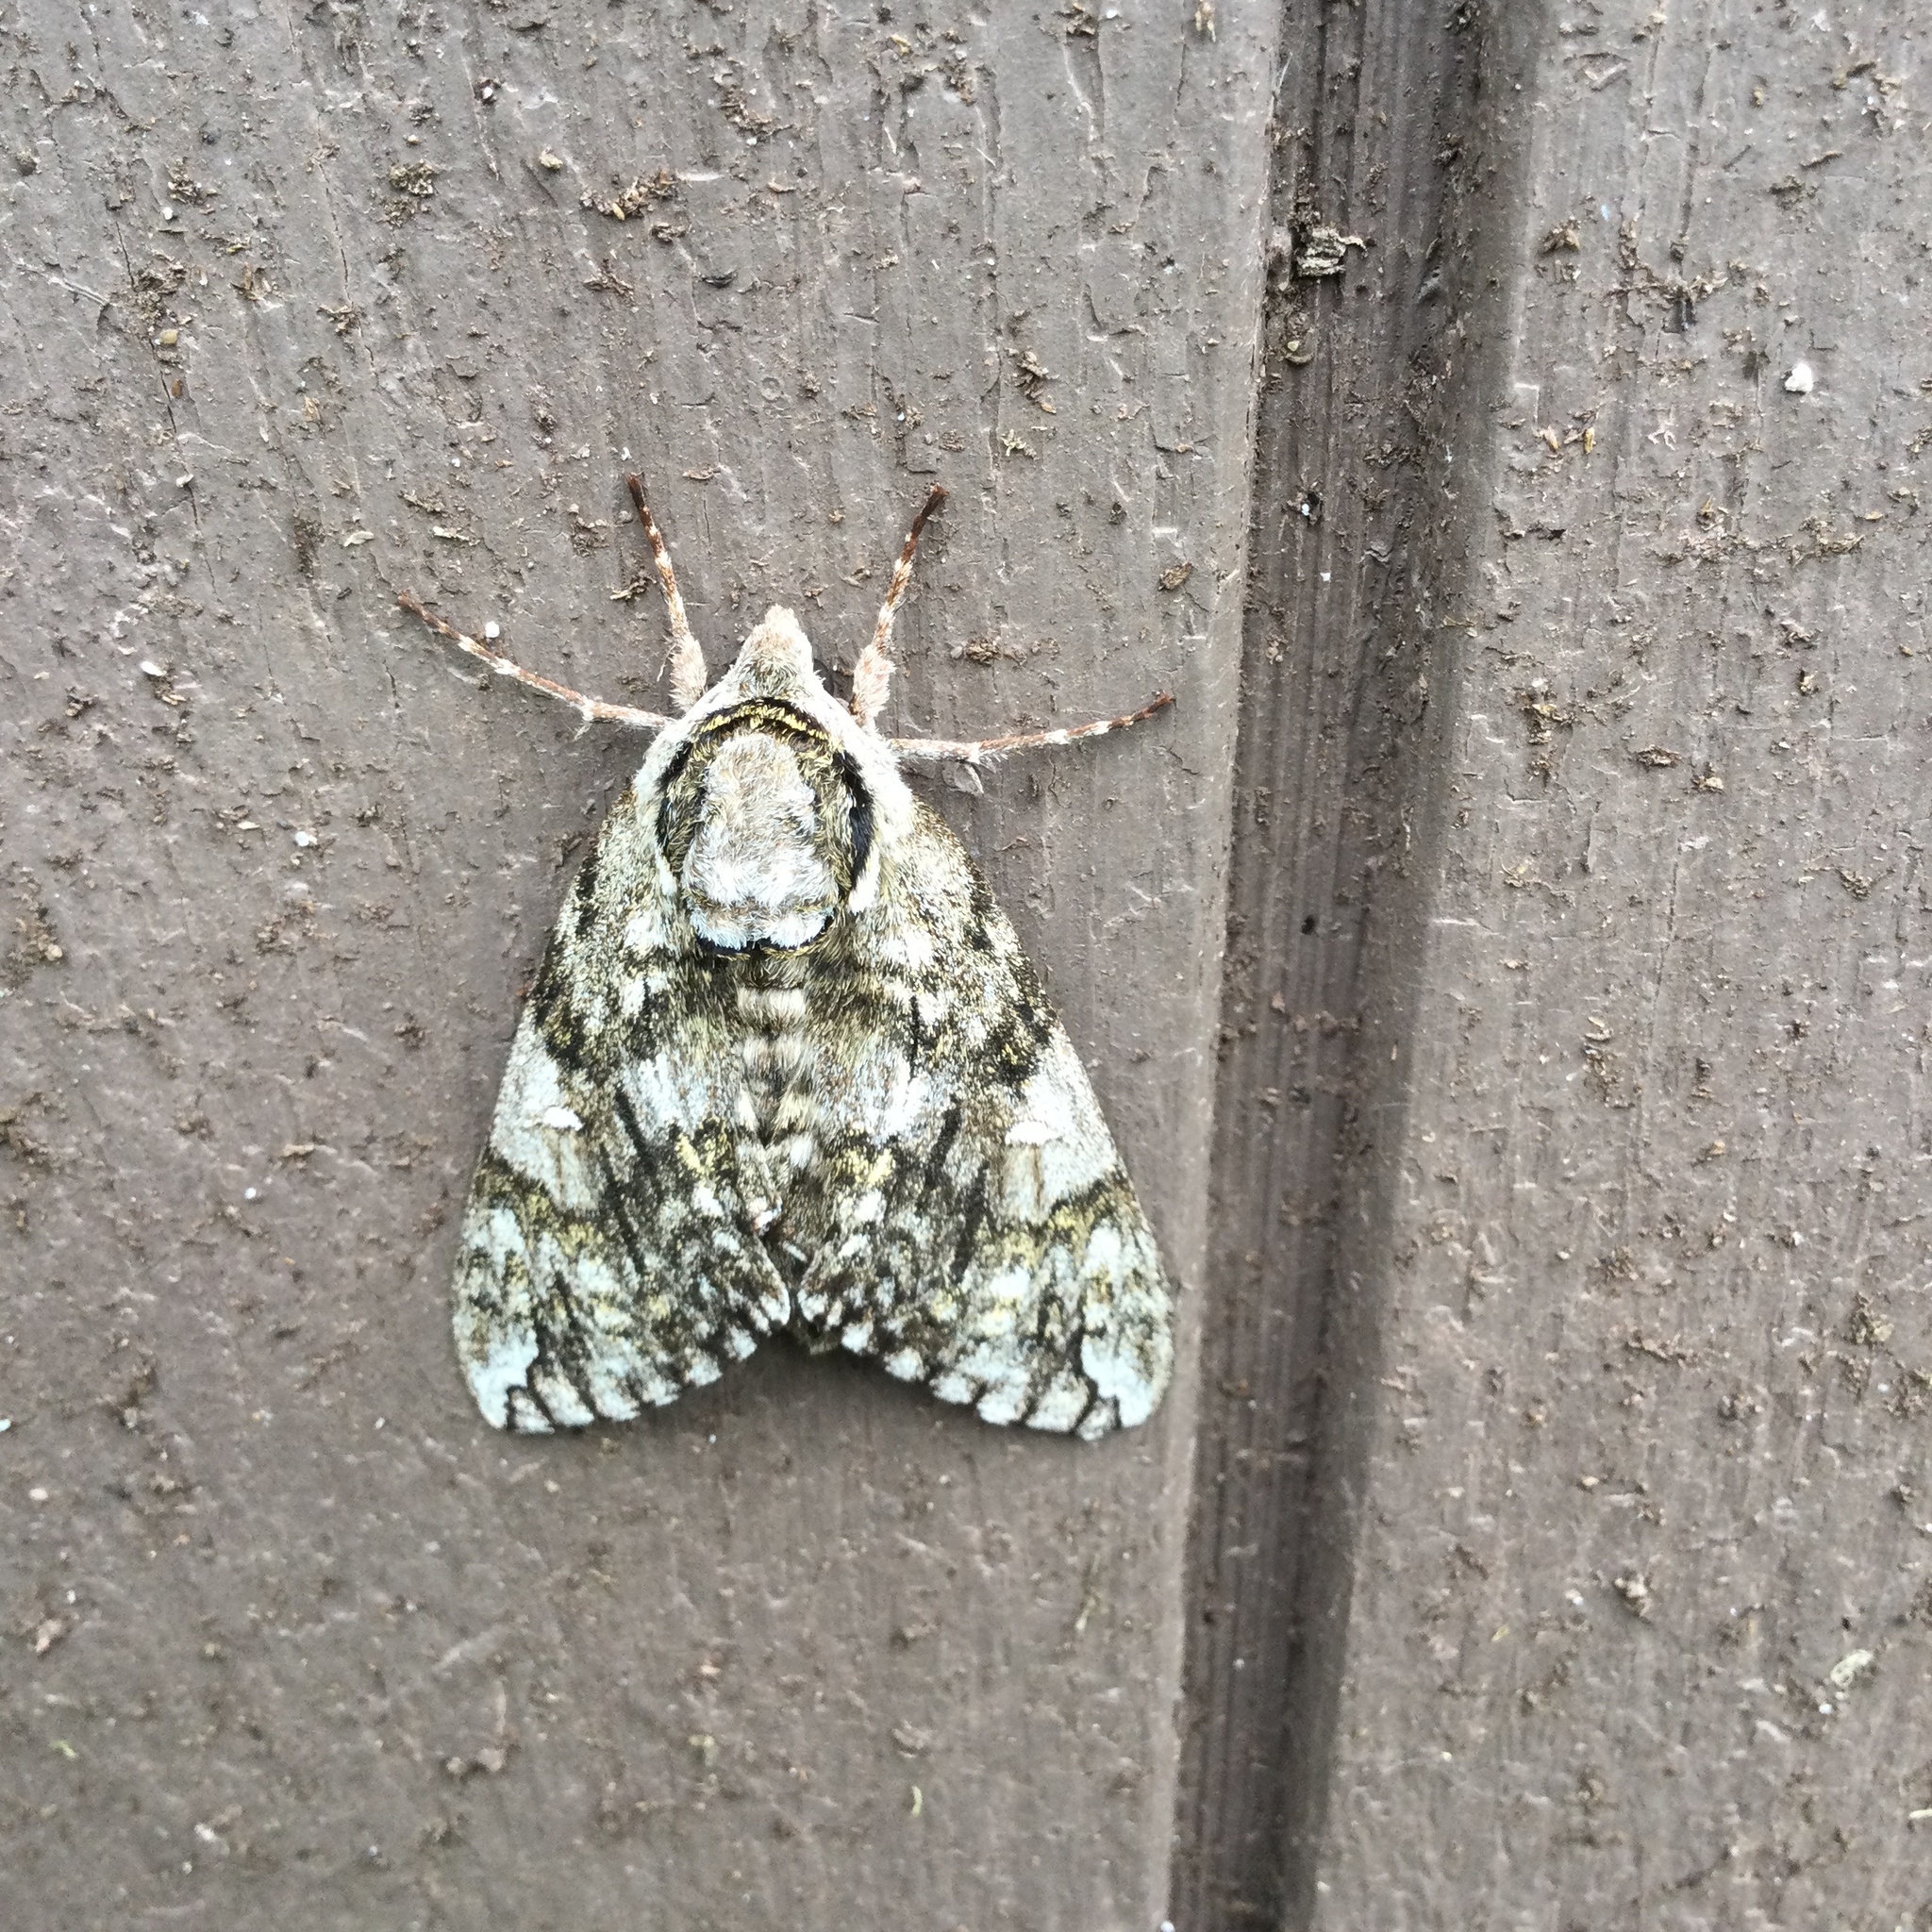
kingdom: Animalia
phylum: Arthropoda
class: Insecta
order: Lepidoptera
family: Sphingidae
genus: Ceratomia
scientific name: Ceratomia undulosa
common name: Waved sphinx
